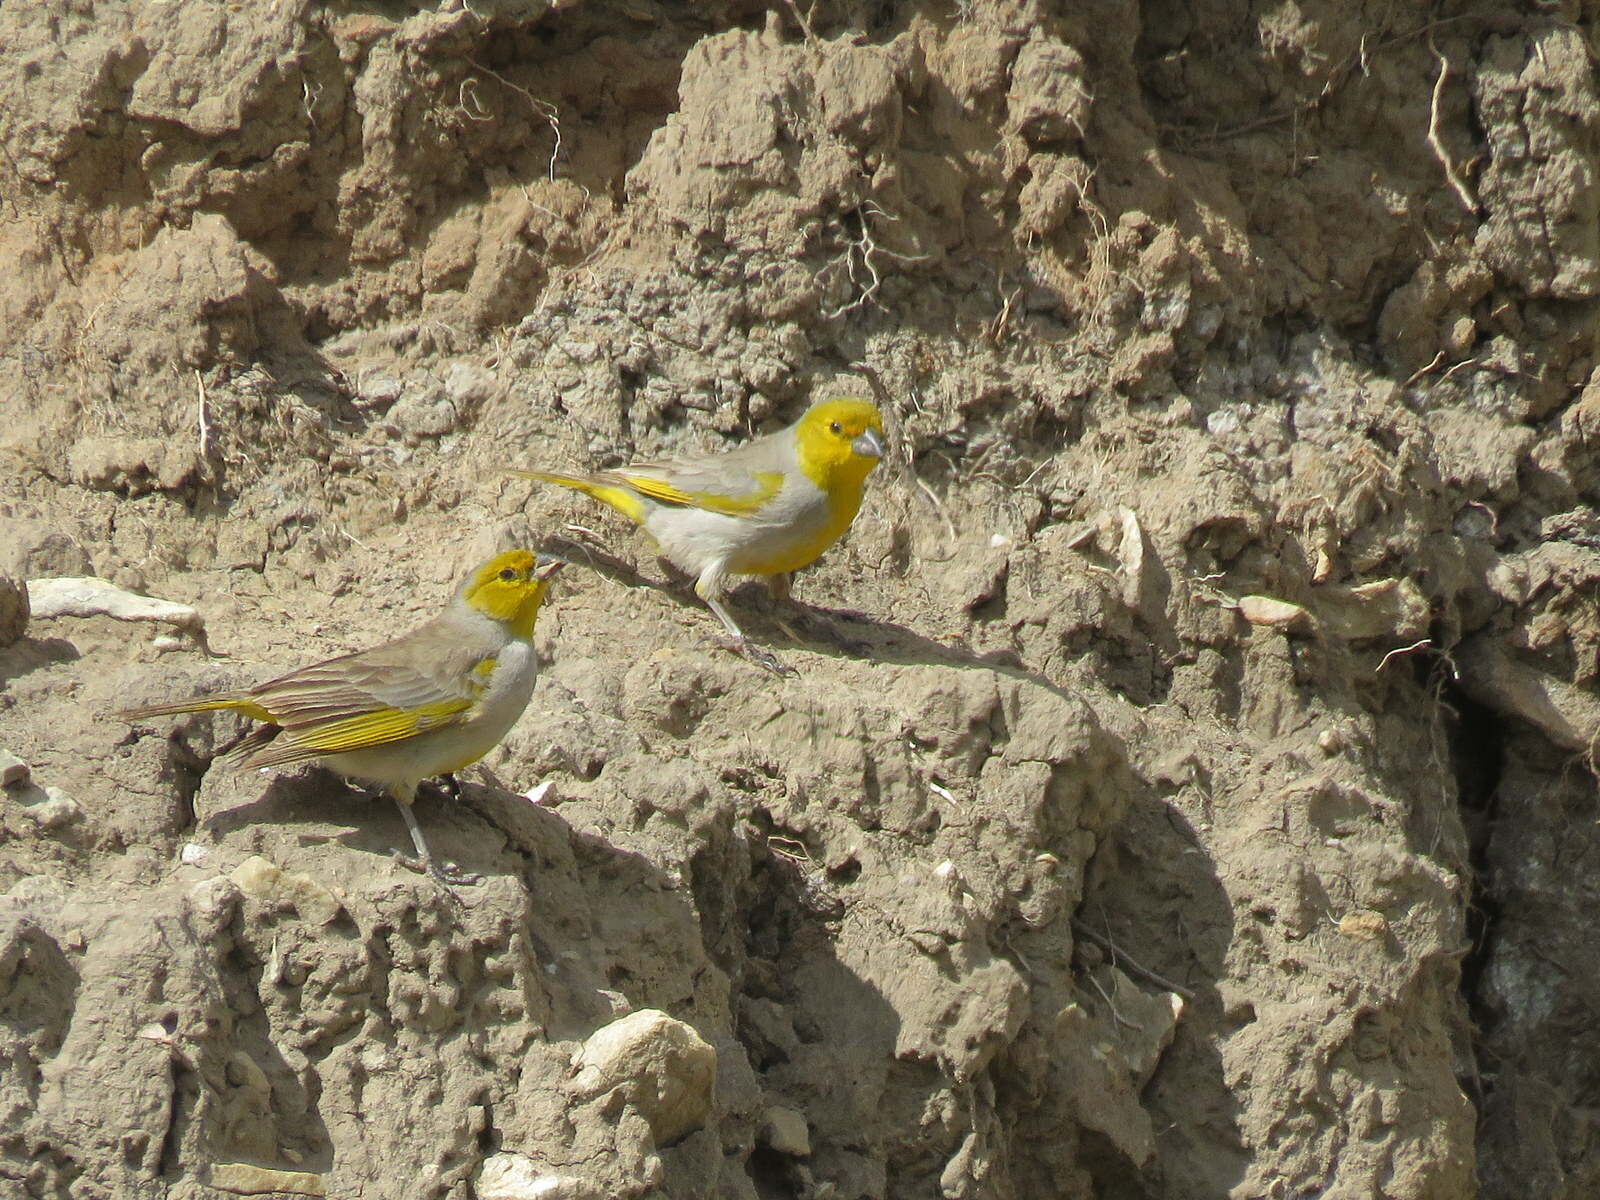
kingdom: Animalia
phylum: Chordata
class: Aves
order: Passeriformes
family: Thraupidae
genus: Sicalis
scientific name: Sicalis luteocephala
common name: Citron-headed yellow finch
